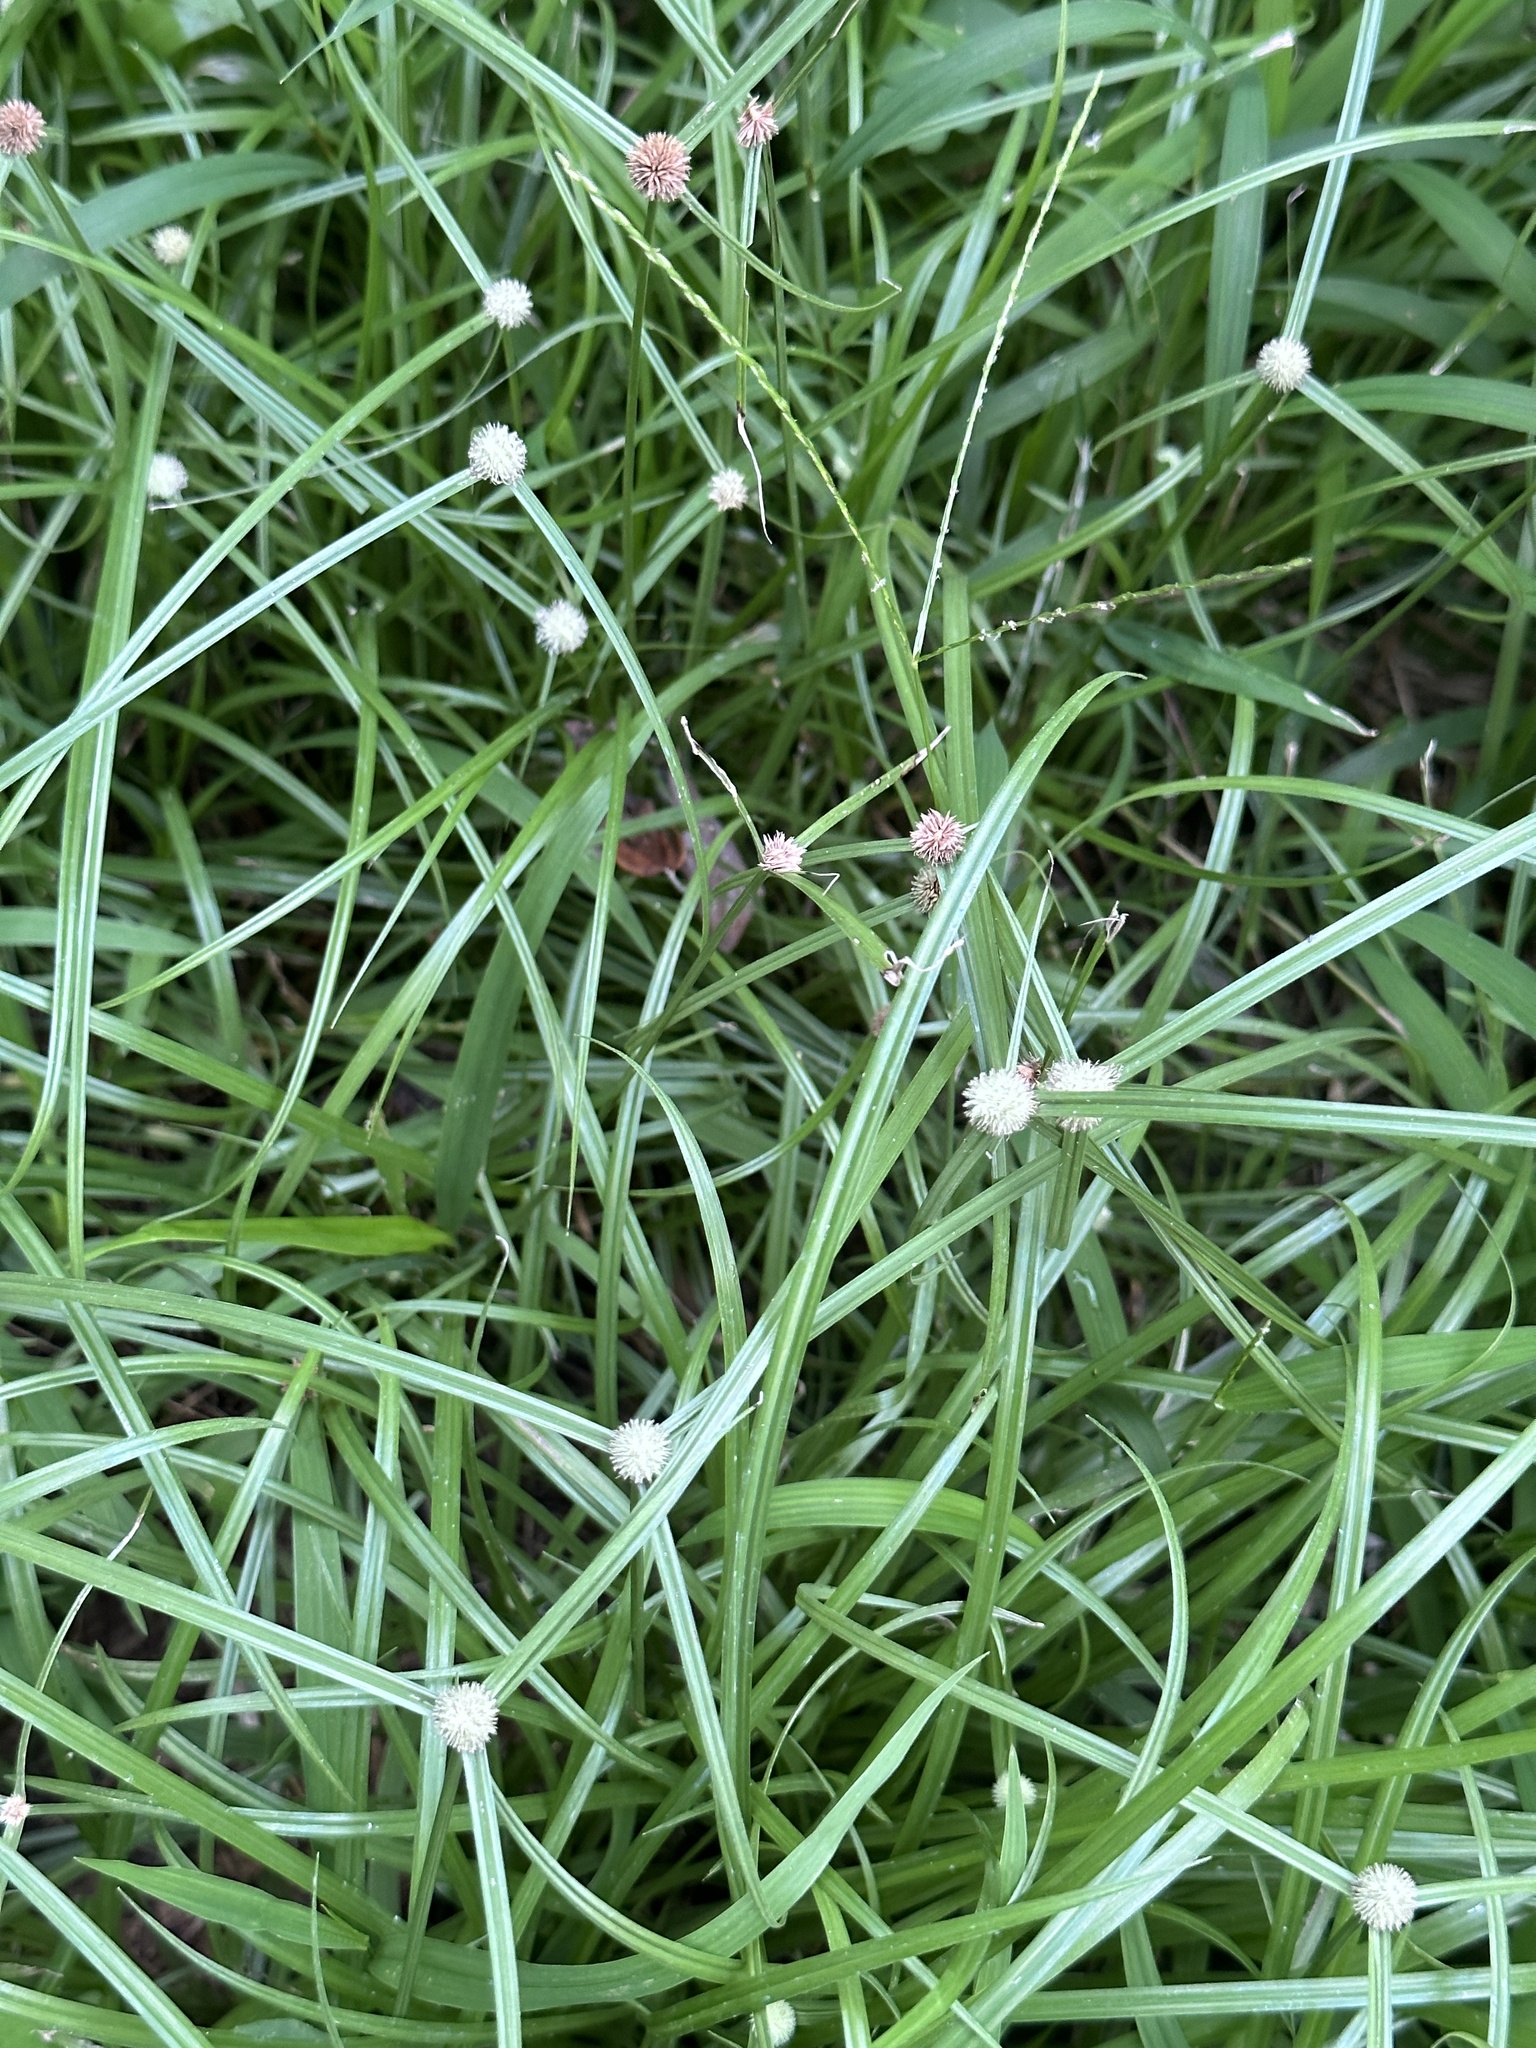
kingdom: Plantae
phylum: Tracheophyta
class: Liliopsida
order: Poales
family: Cyperaceae
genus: Cyperus
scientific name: Cyperus mindorensis
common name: Flatsedge
